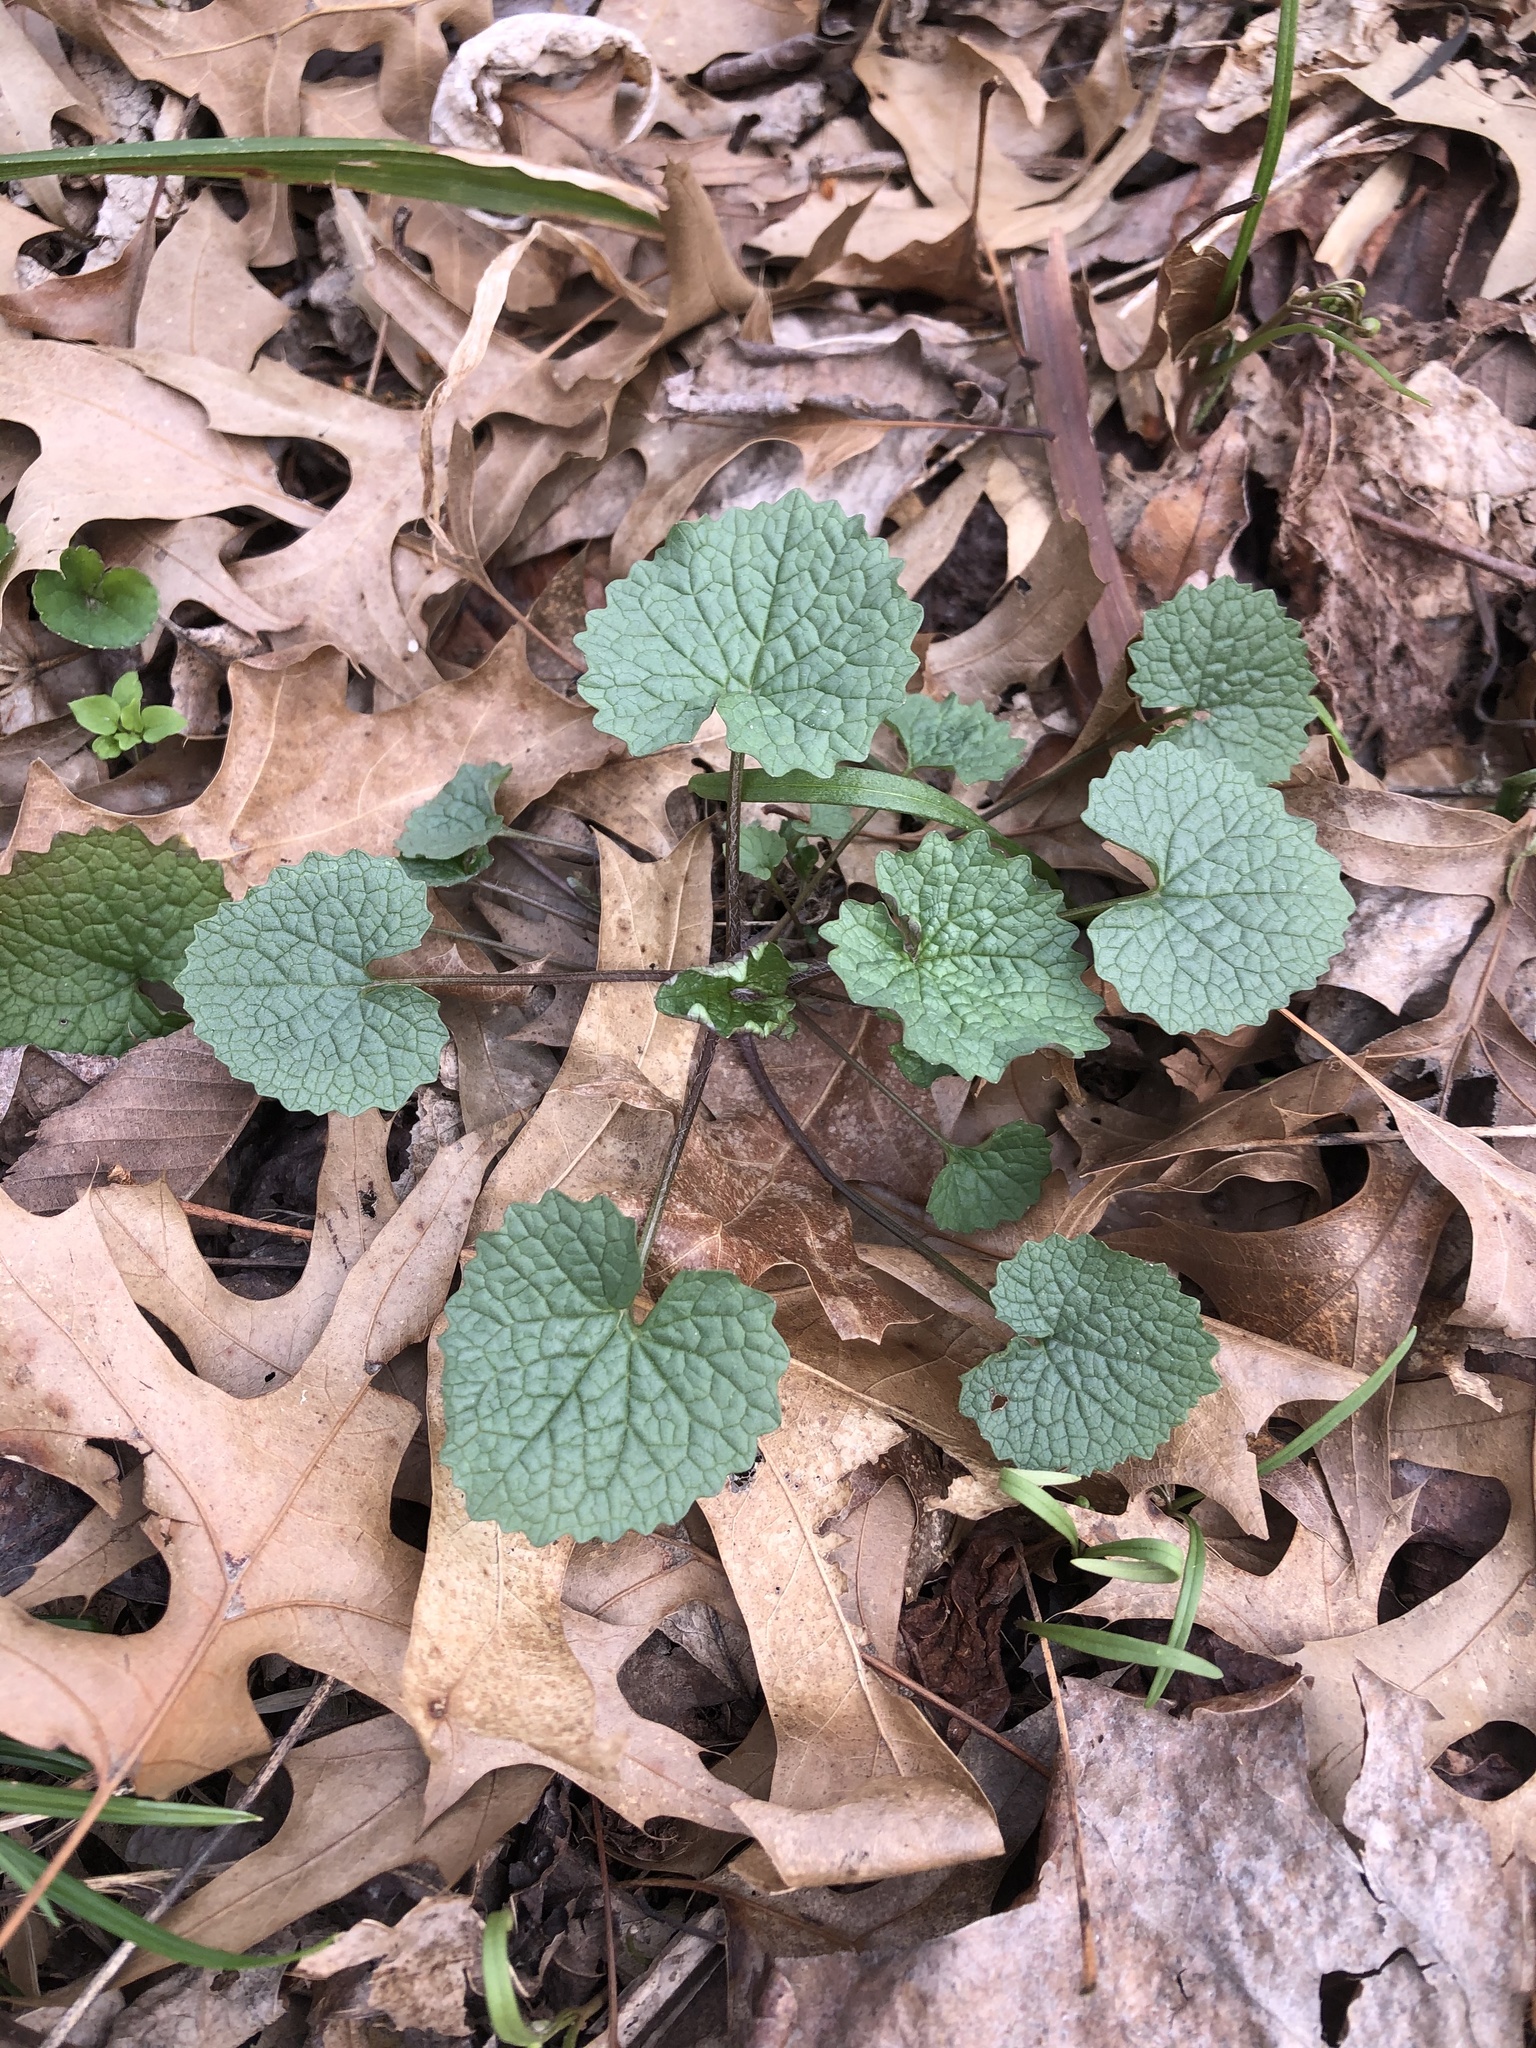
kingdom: Plantae
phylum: Tracheophyta
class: Magnoliopsida
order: Brassicales
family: Brassicaceae
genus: Alliaria
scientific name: Alliaria petiolata
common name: Garlic mustard
